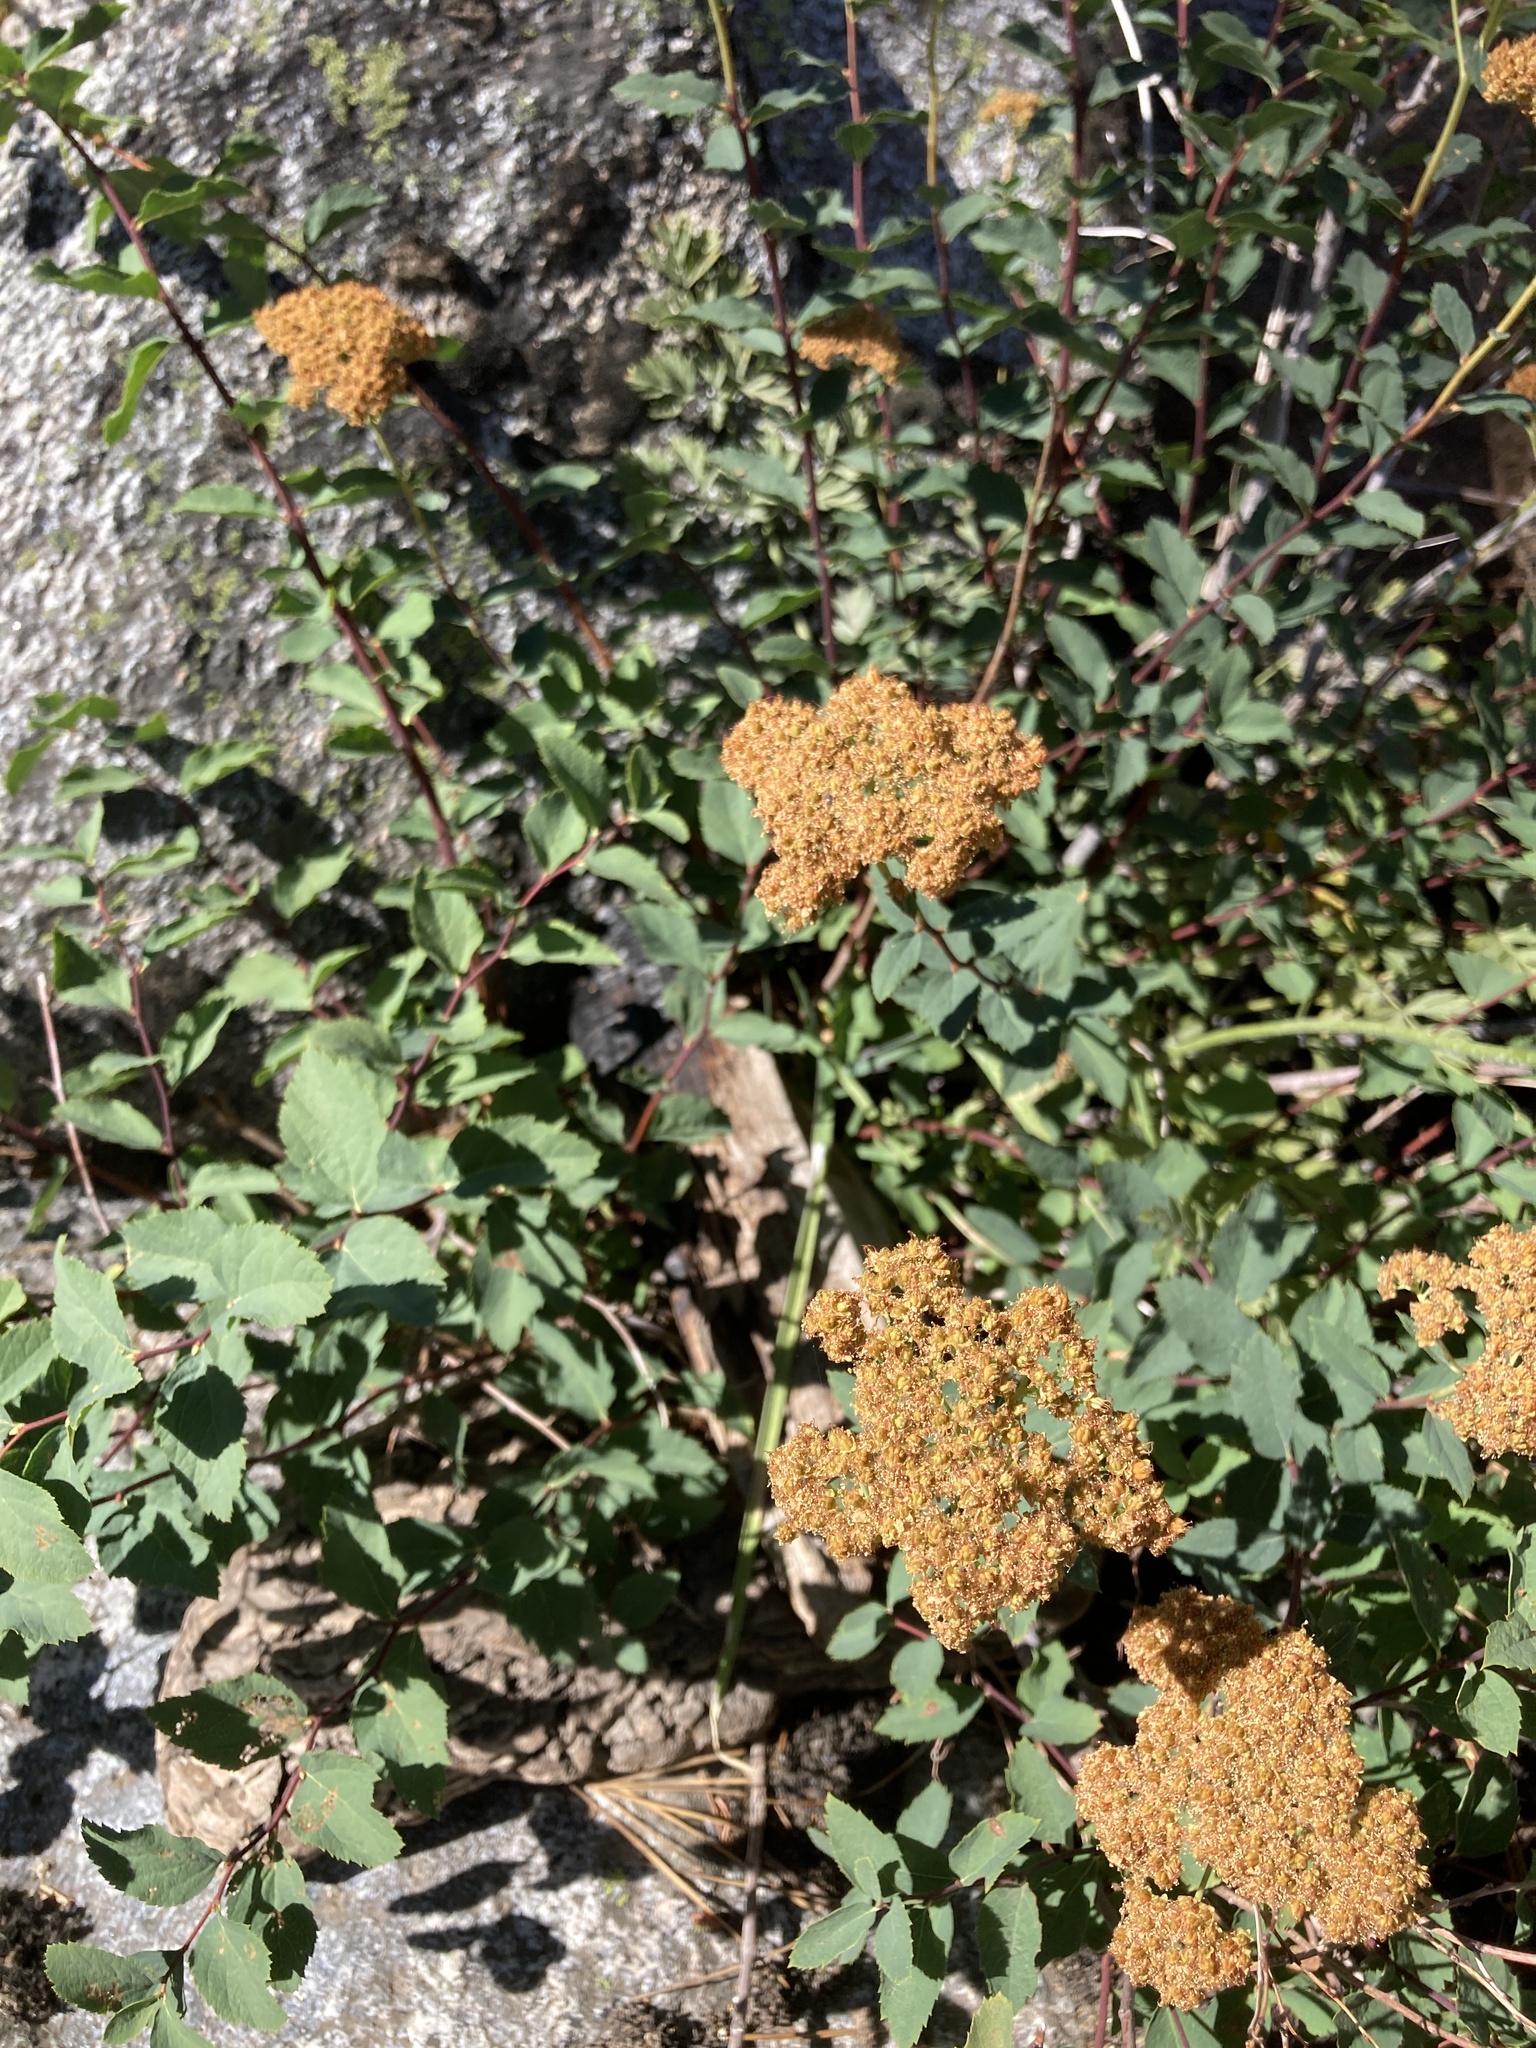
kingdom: Plantae
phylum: Tracheophyta
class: Magnoliopsida
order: Rosales
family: Rosaceae
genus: Spiraea
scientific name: Spiraea splendens
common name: Subalpine meadowsweet
